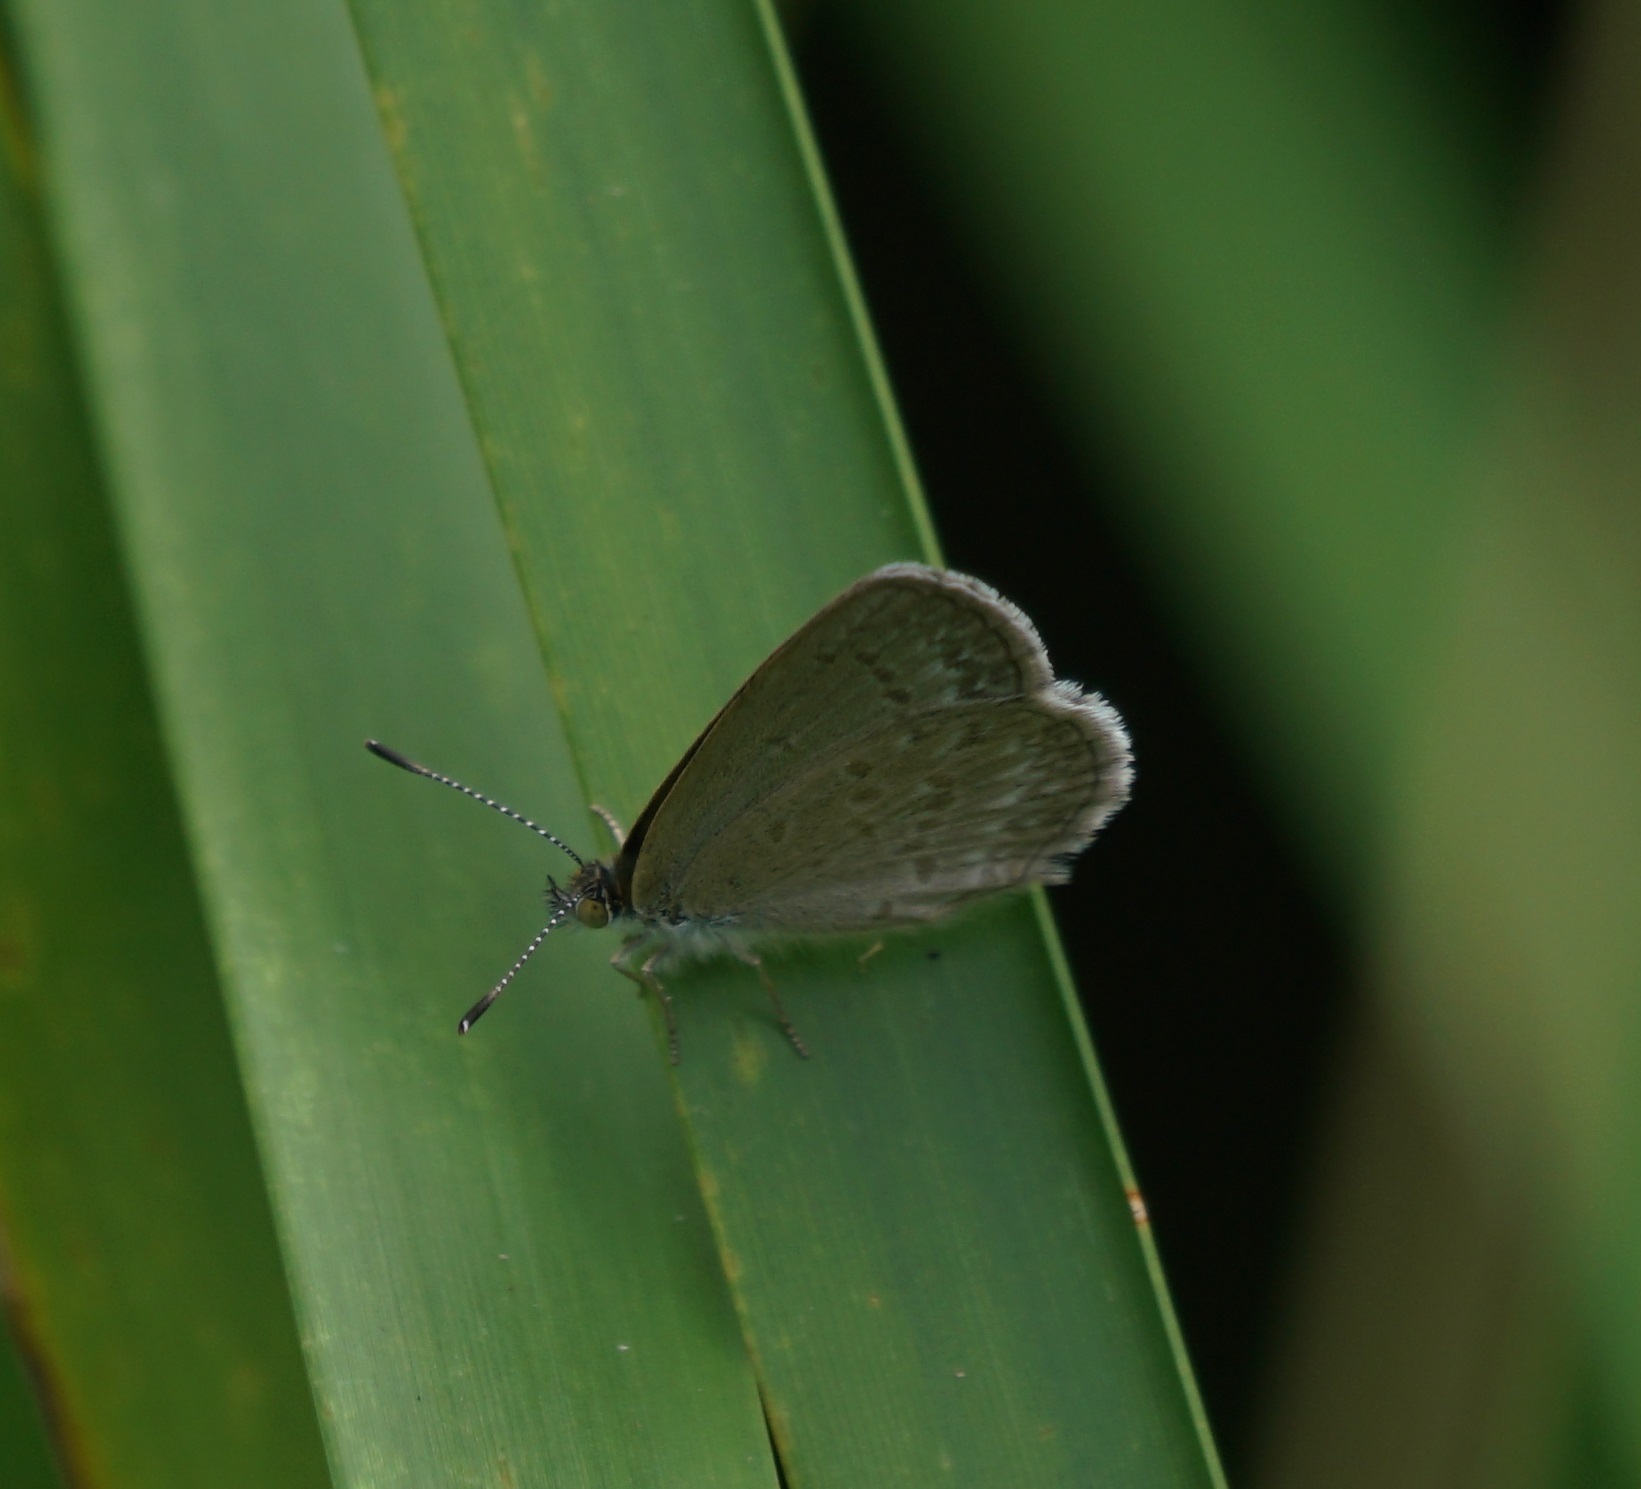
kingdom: Animalia
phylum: Arthropoda
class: Insecta
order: Lepidoptera
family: Lycaenidae
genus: Zizina
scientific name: Zizina labradus
